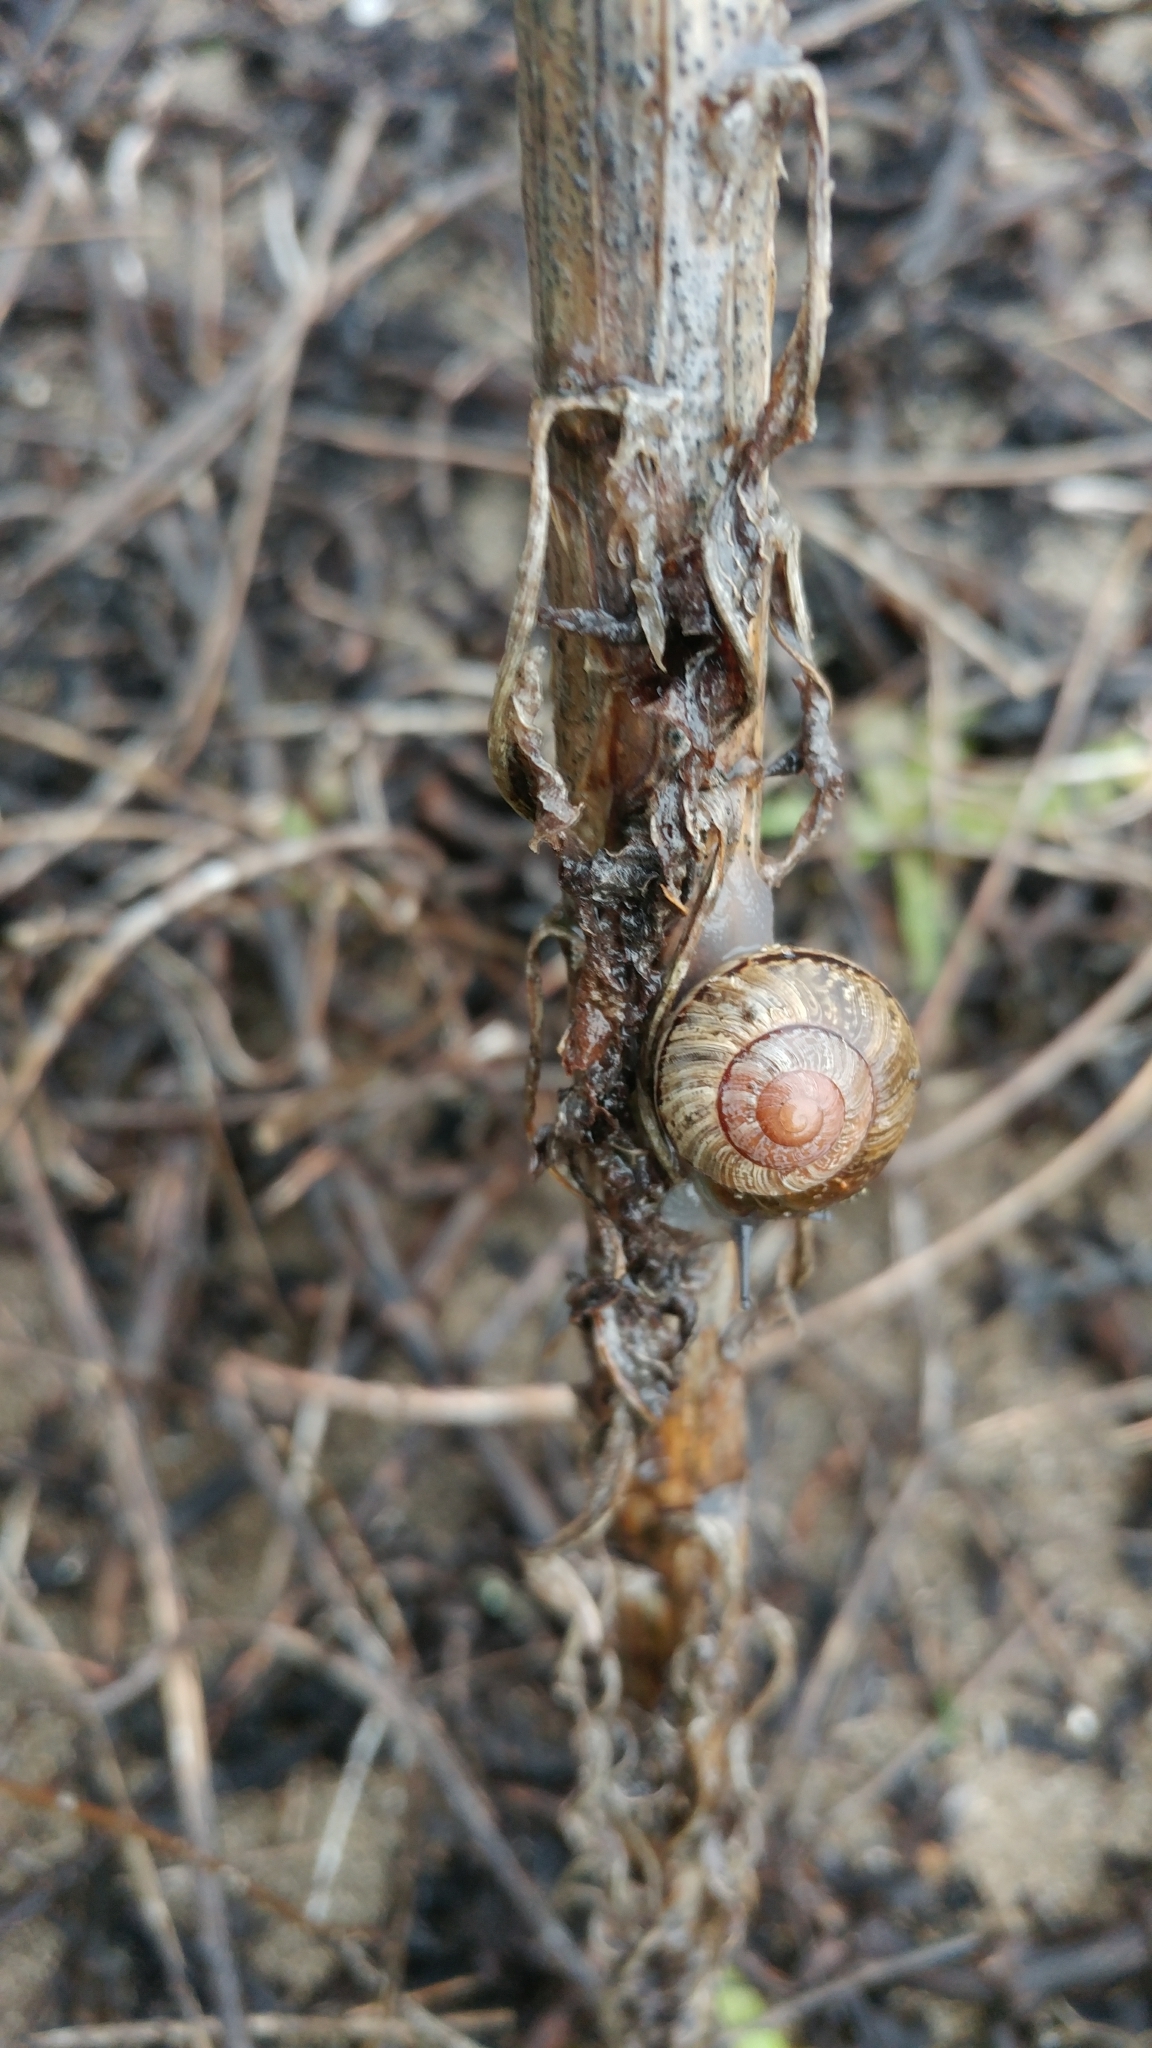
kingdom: Animalia
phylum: Mollusca
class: Gastropoda
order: Stylommatophora
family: Xanthonychidae
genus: Xerarionta
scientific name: Xerarionta redimita
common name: Wreathed cactus snail
